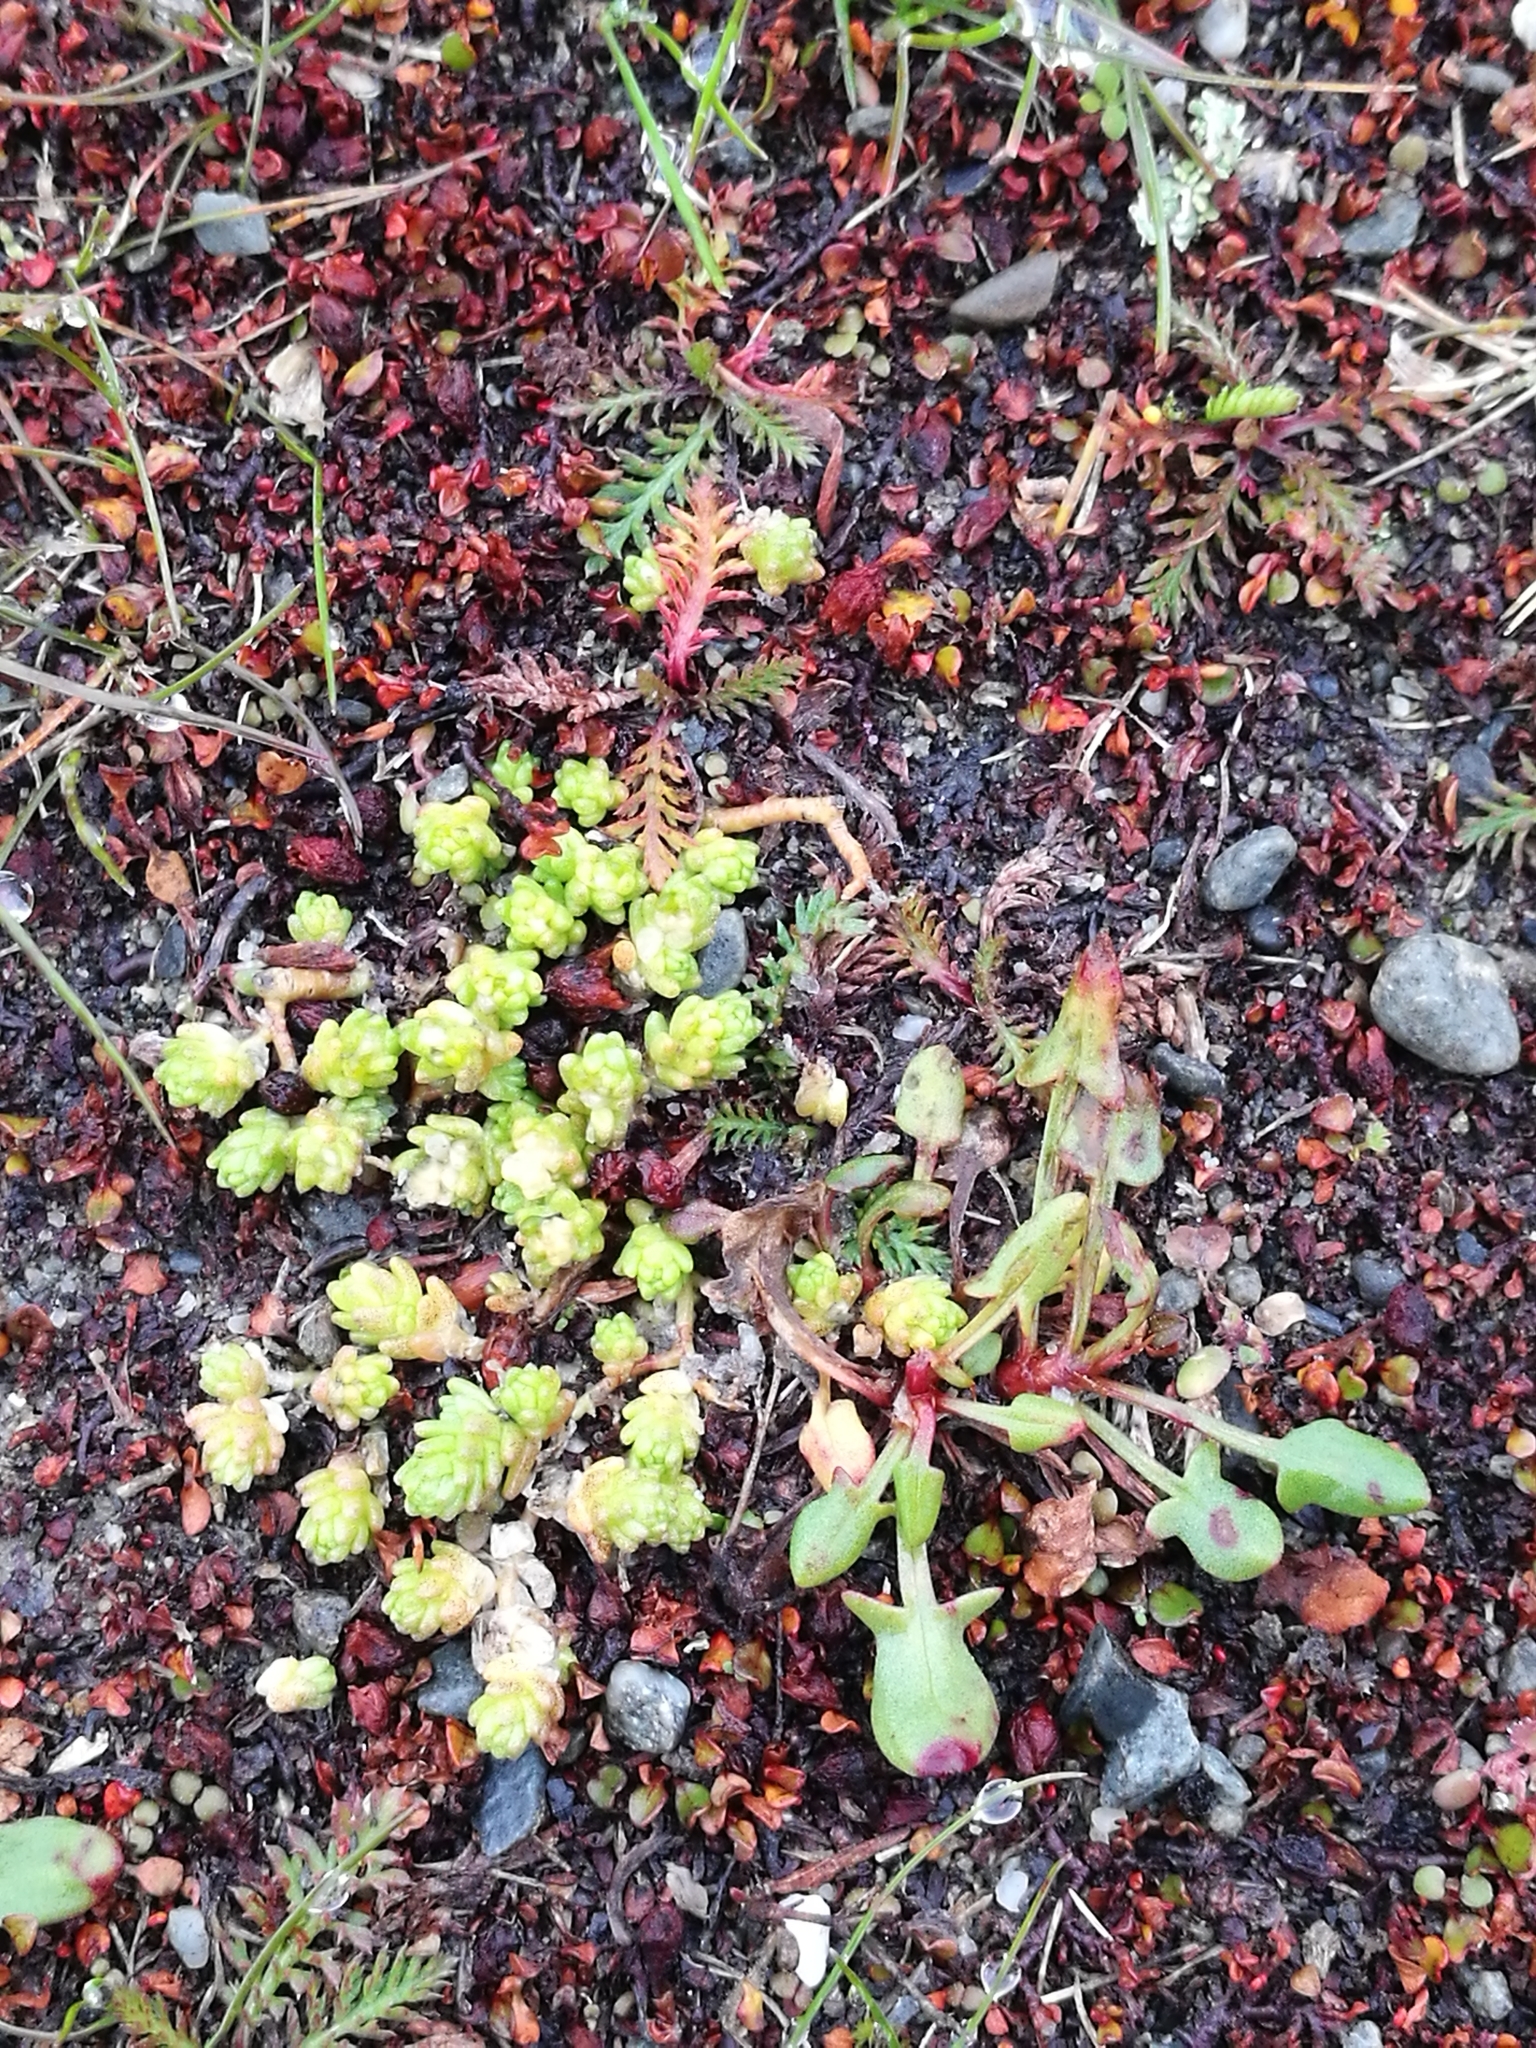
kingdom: Plantae
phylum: Tracheophyta
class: Magnoliopsida
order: Saxifragales
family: Crassulaceae
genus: Sedum
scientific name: Sedum acre
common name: Biting stonecrop
